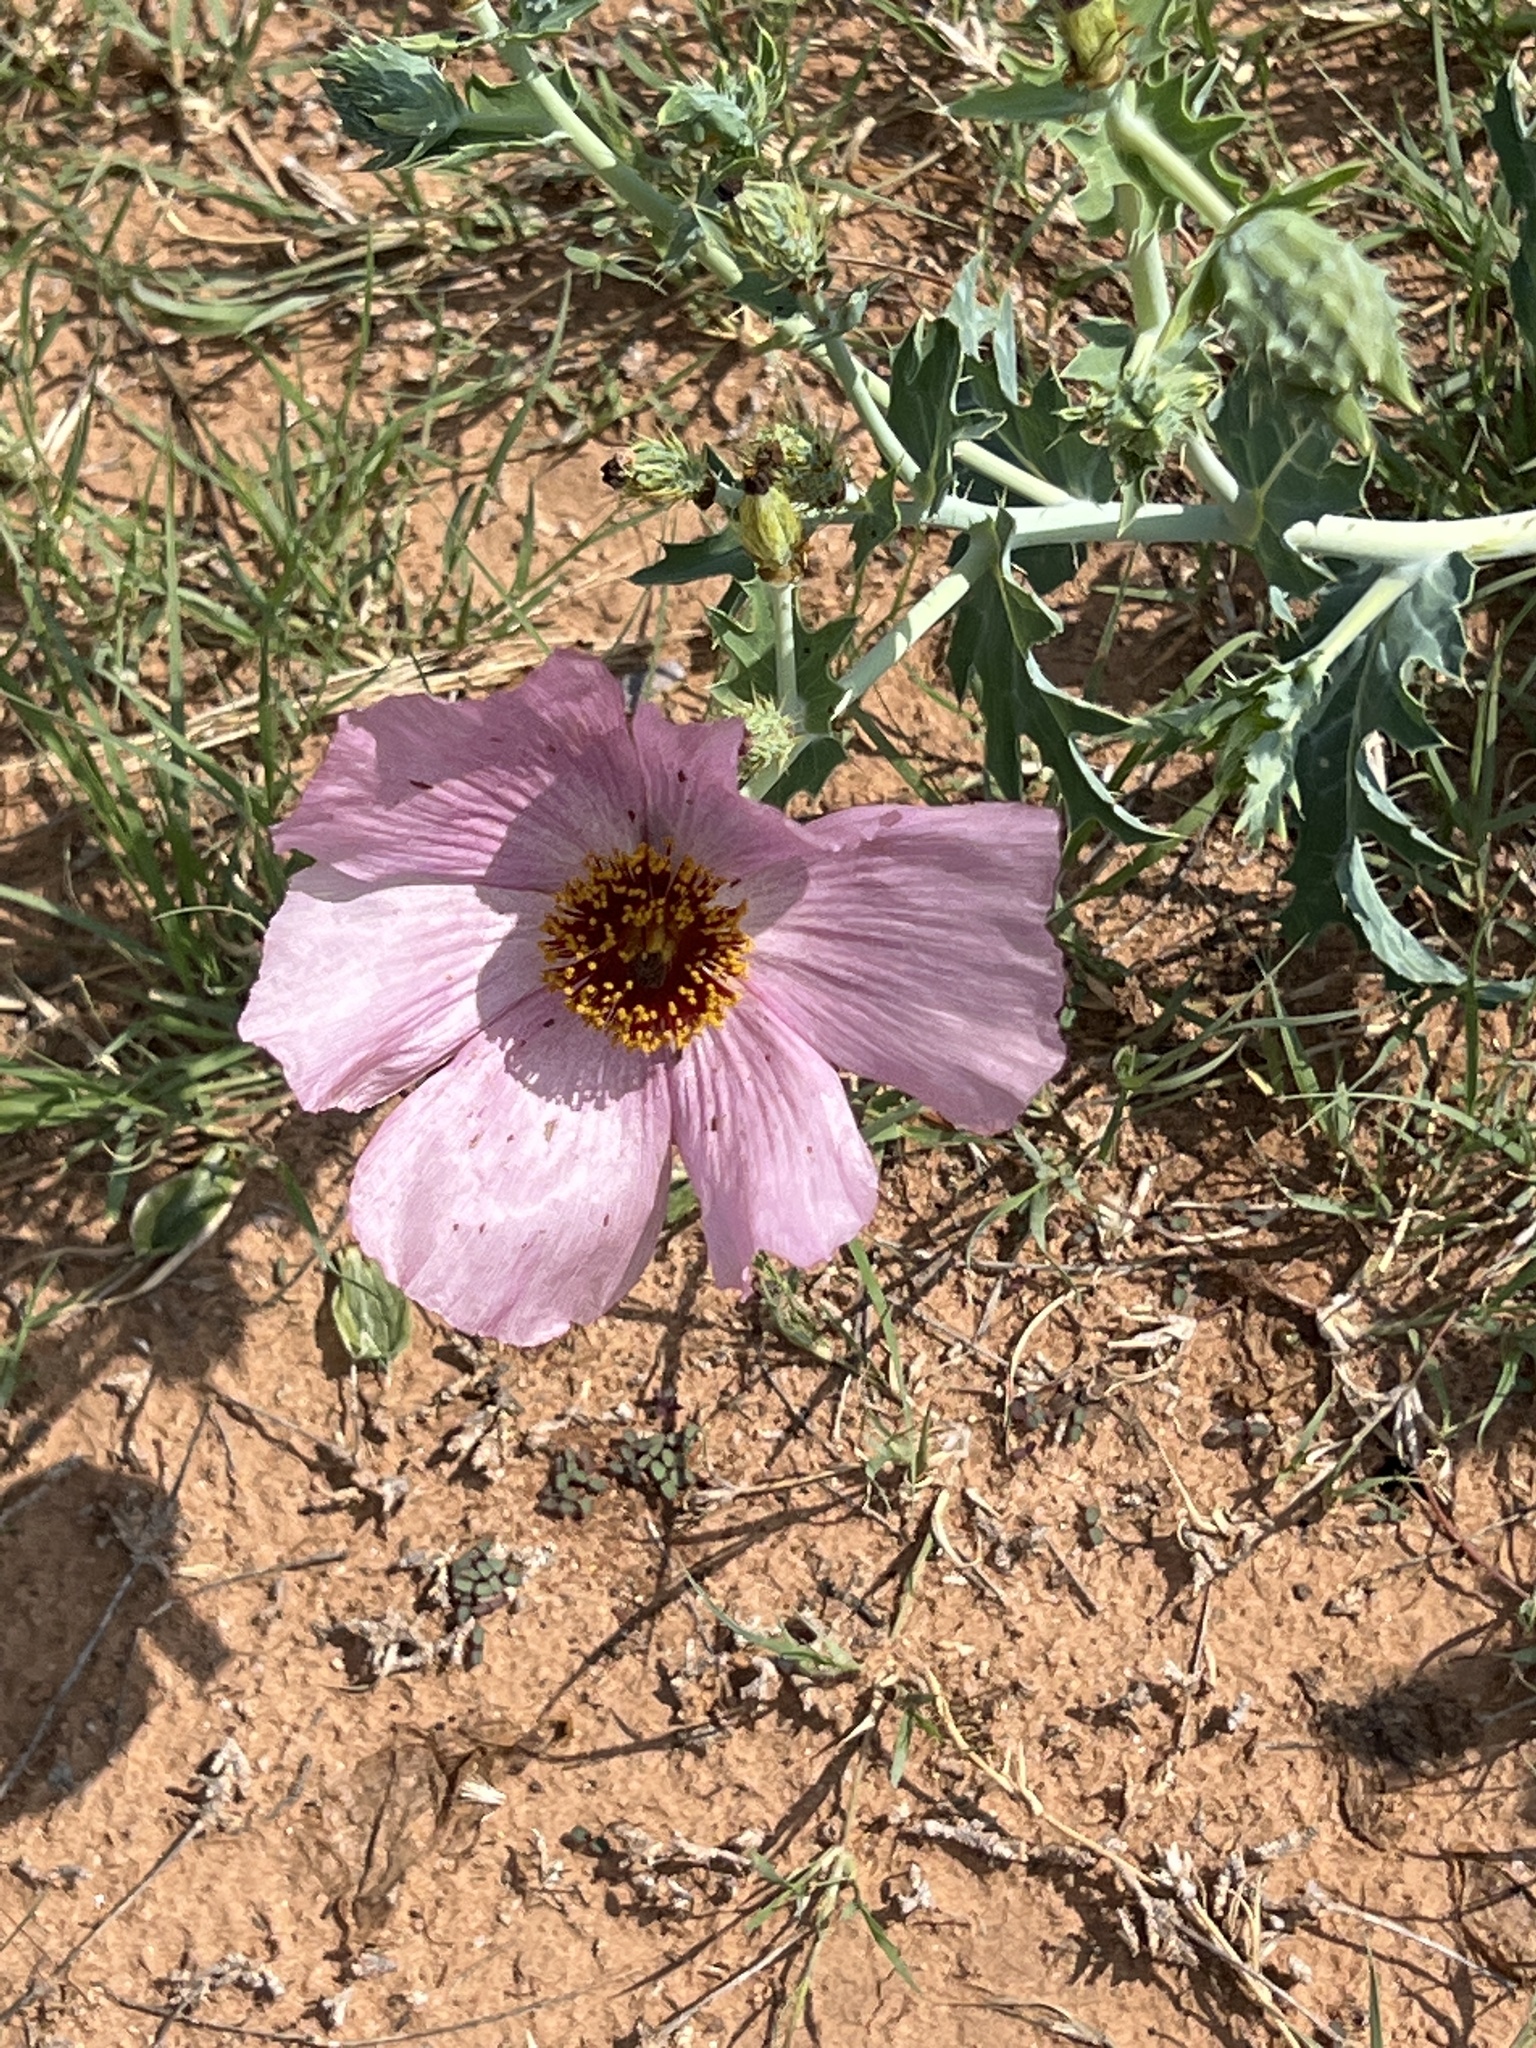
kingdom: Plantae
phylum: Tracheophyta
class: Magnoliopsida
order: Ranunculales
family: Papaveraceae
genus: Argemone
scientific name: Argemone sanguinea
